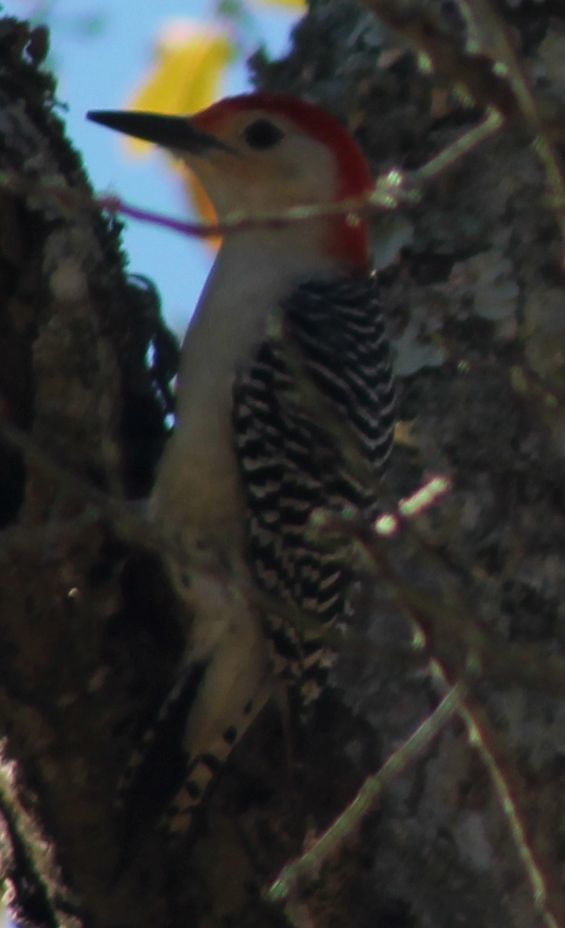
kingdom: Animalia
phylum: Chordata
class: Aves
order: Piciformes
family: Picidae
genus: Melanerpes
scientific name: Melanerpes carolinus
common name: Red-bellied woodpecker
